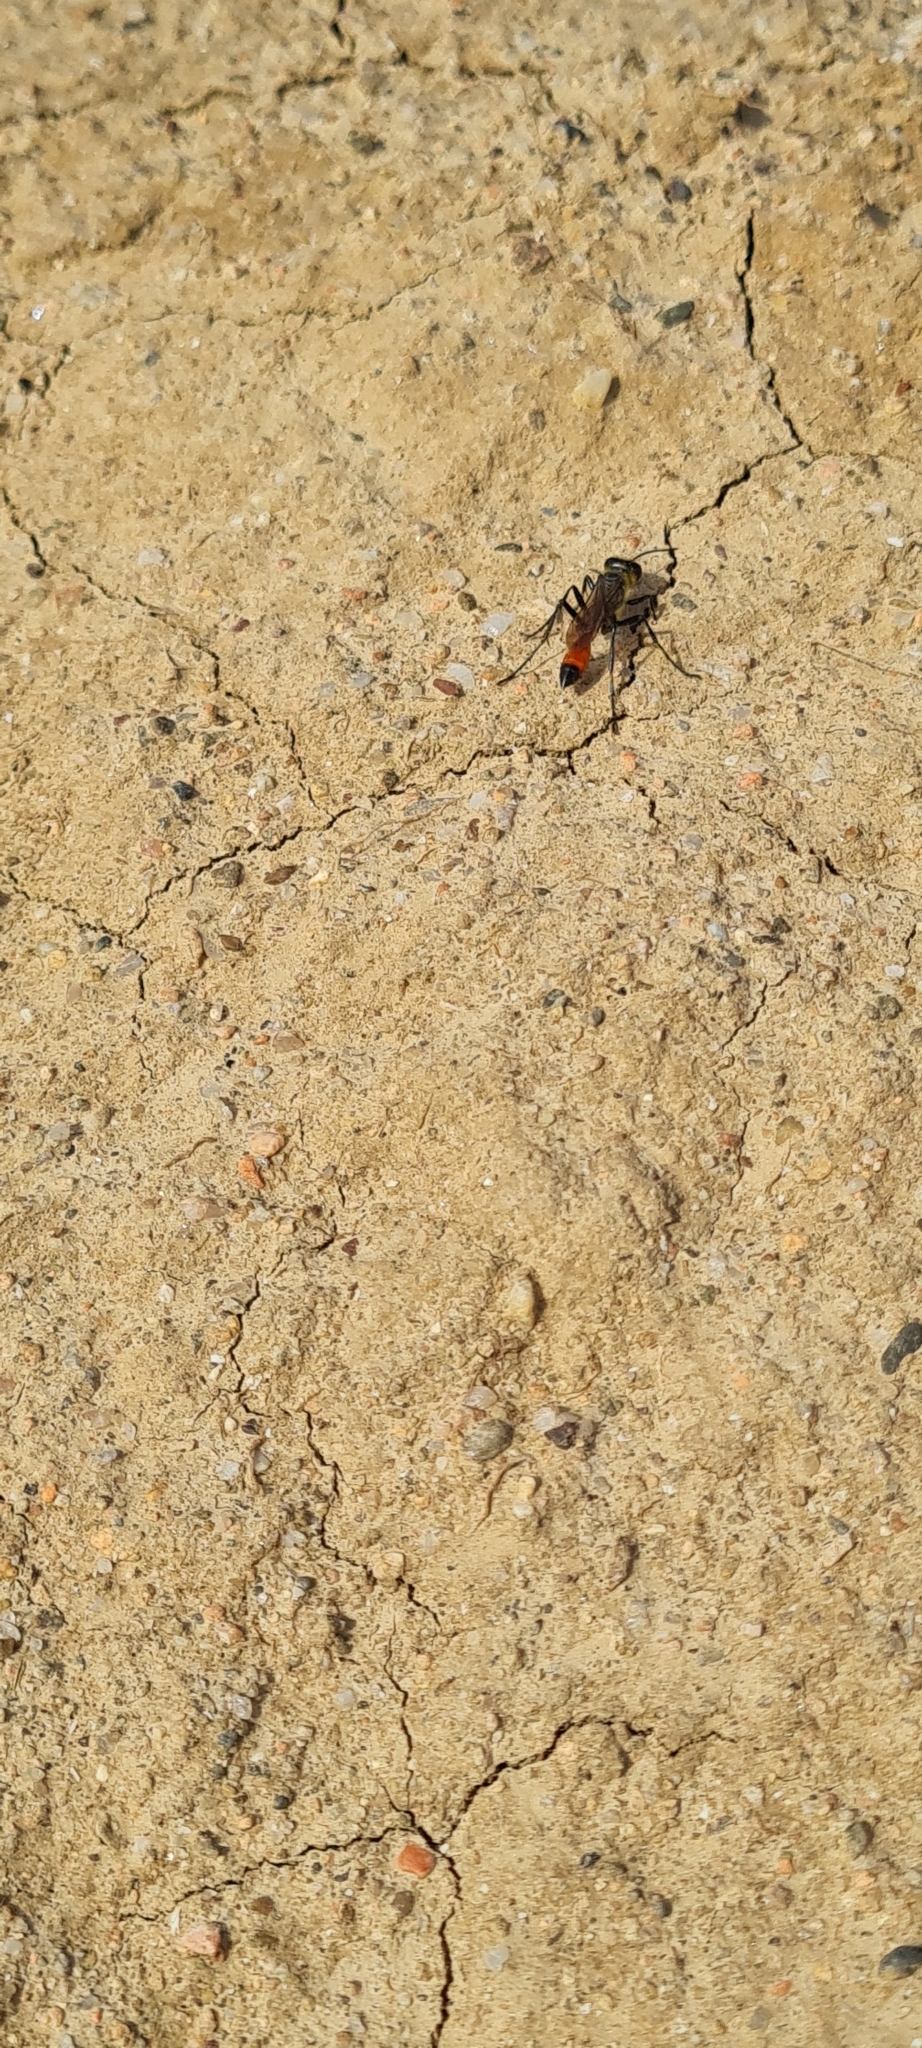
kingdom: Animalia
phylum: Arthropoda
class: Insecta
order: Hymenoptera
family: Sphecidae
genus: Podalonia
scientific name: Podalonia tydei
